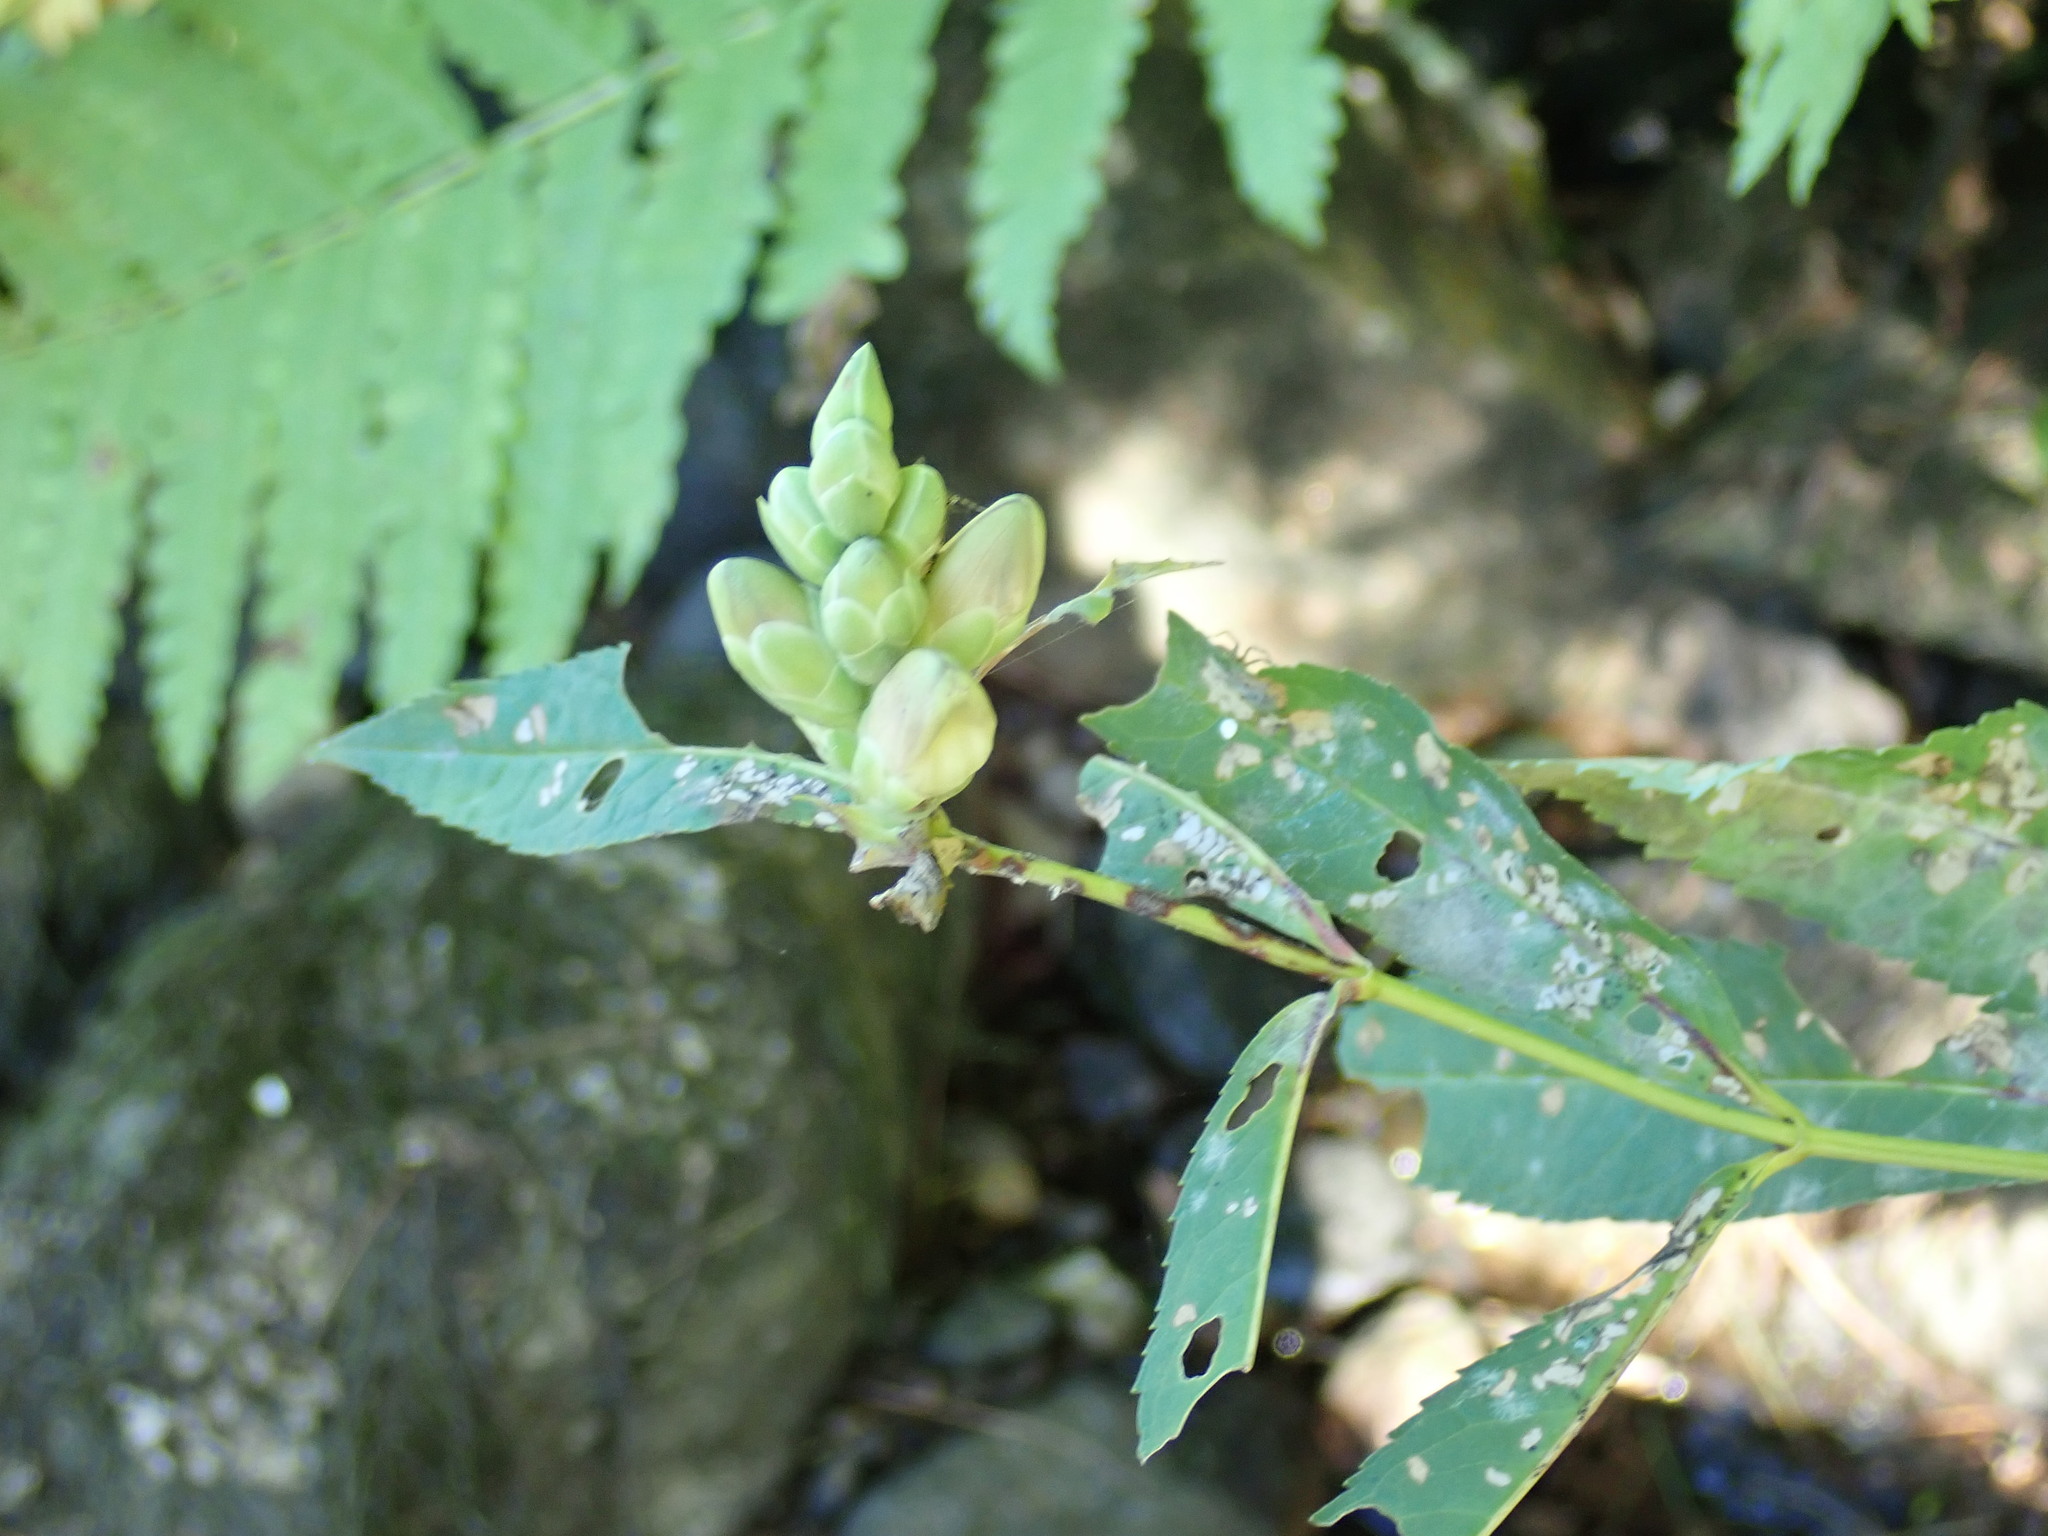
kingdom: Plantae
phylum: Tracheophyta
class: Magnoliopsida
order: Lamiales
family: Plantaginaceae
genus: Chelone
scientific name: Chelone glabra
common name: Snakehead
